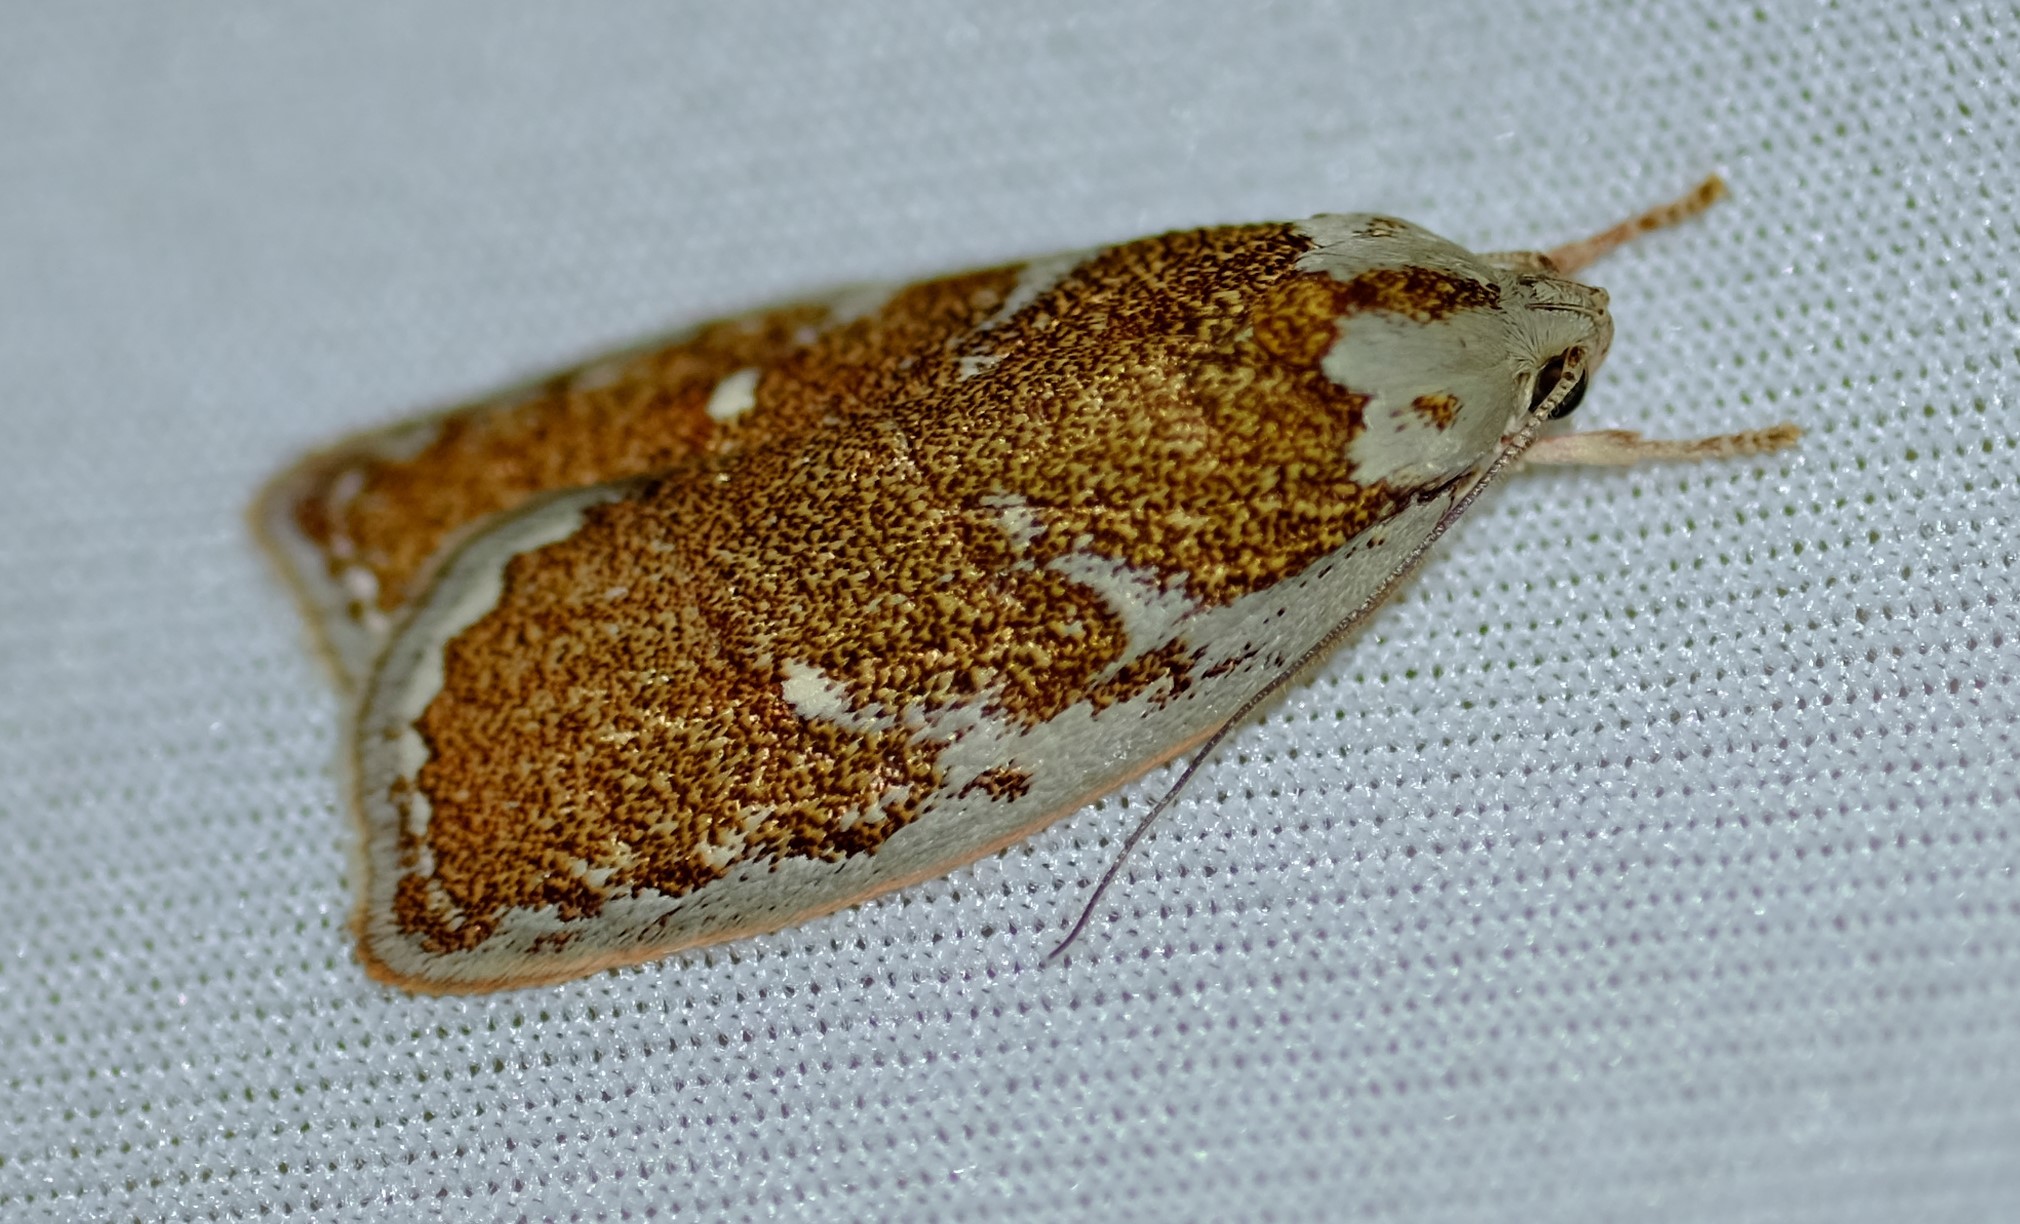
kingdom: Animalia
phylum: Arthropoda
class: Insecta
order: Lepidoptera
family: Oecophoridae
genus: Euchaetis
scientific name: Euchaetis rhizobola
